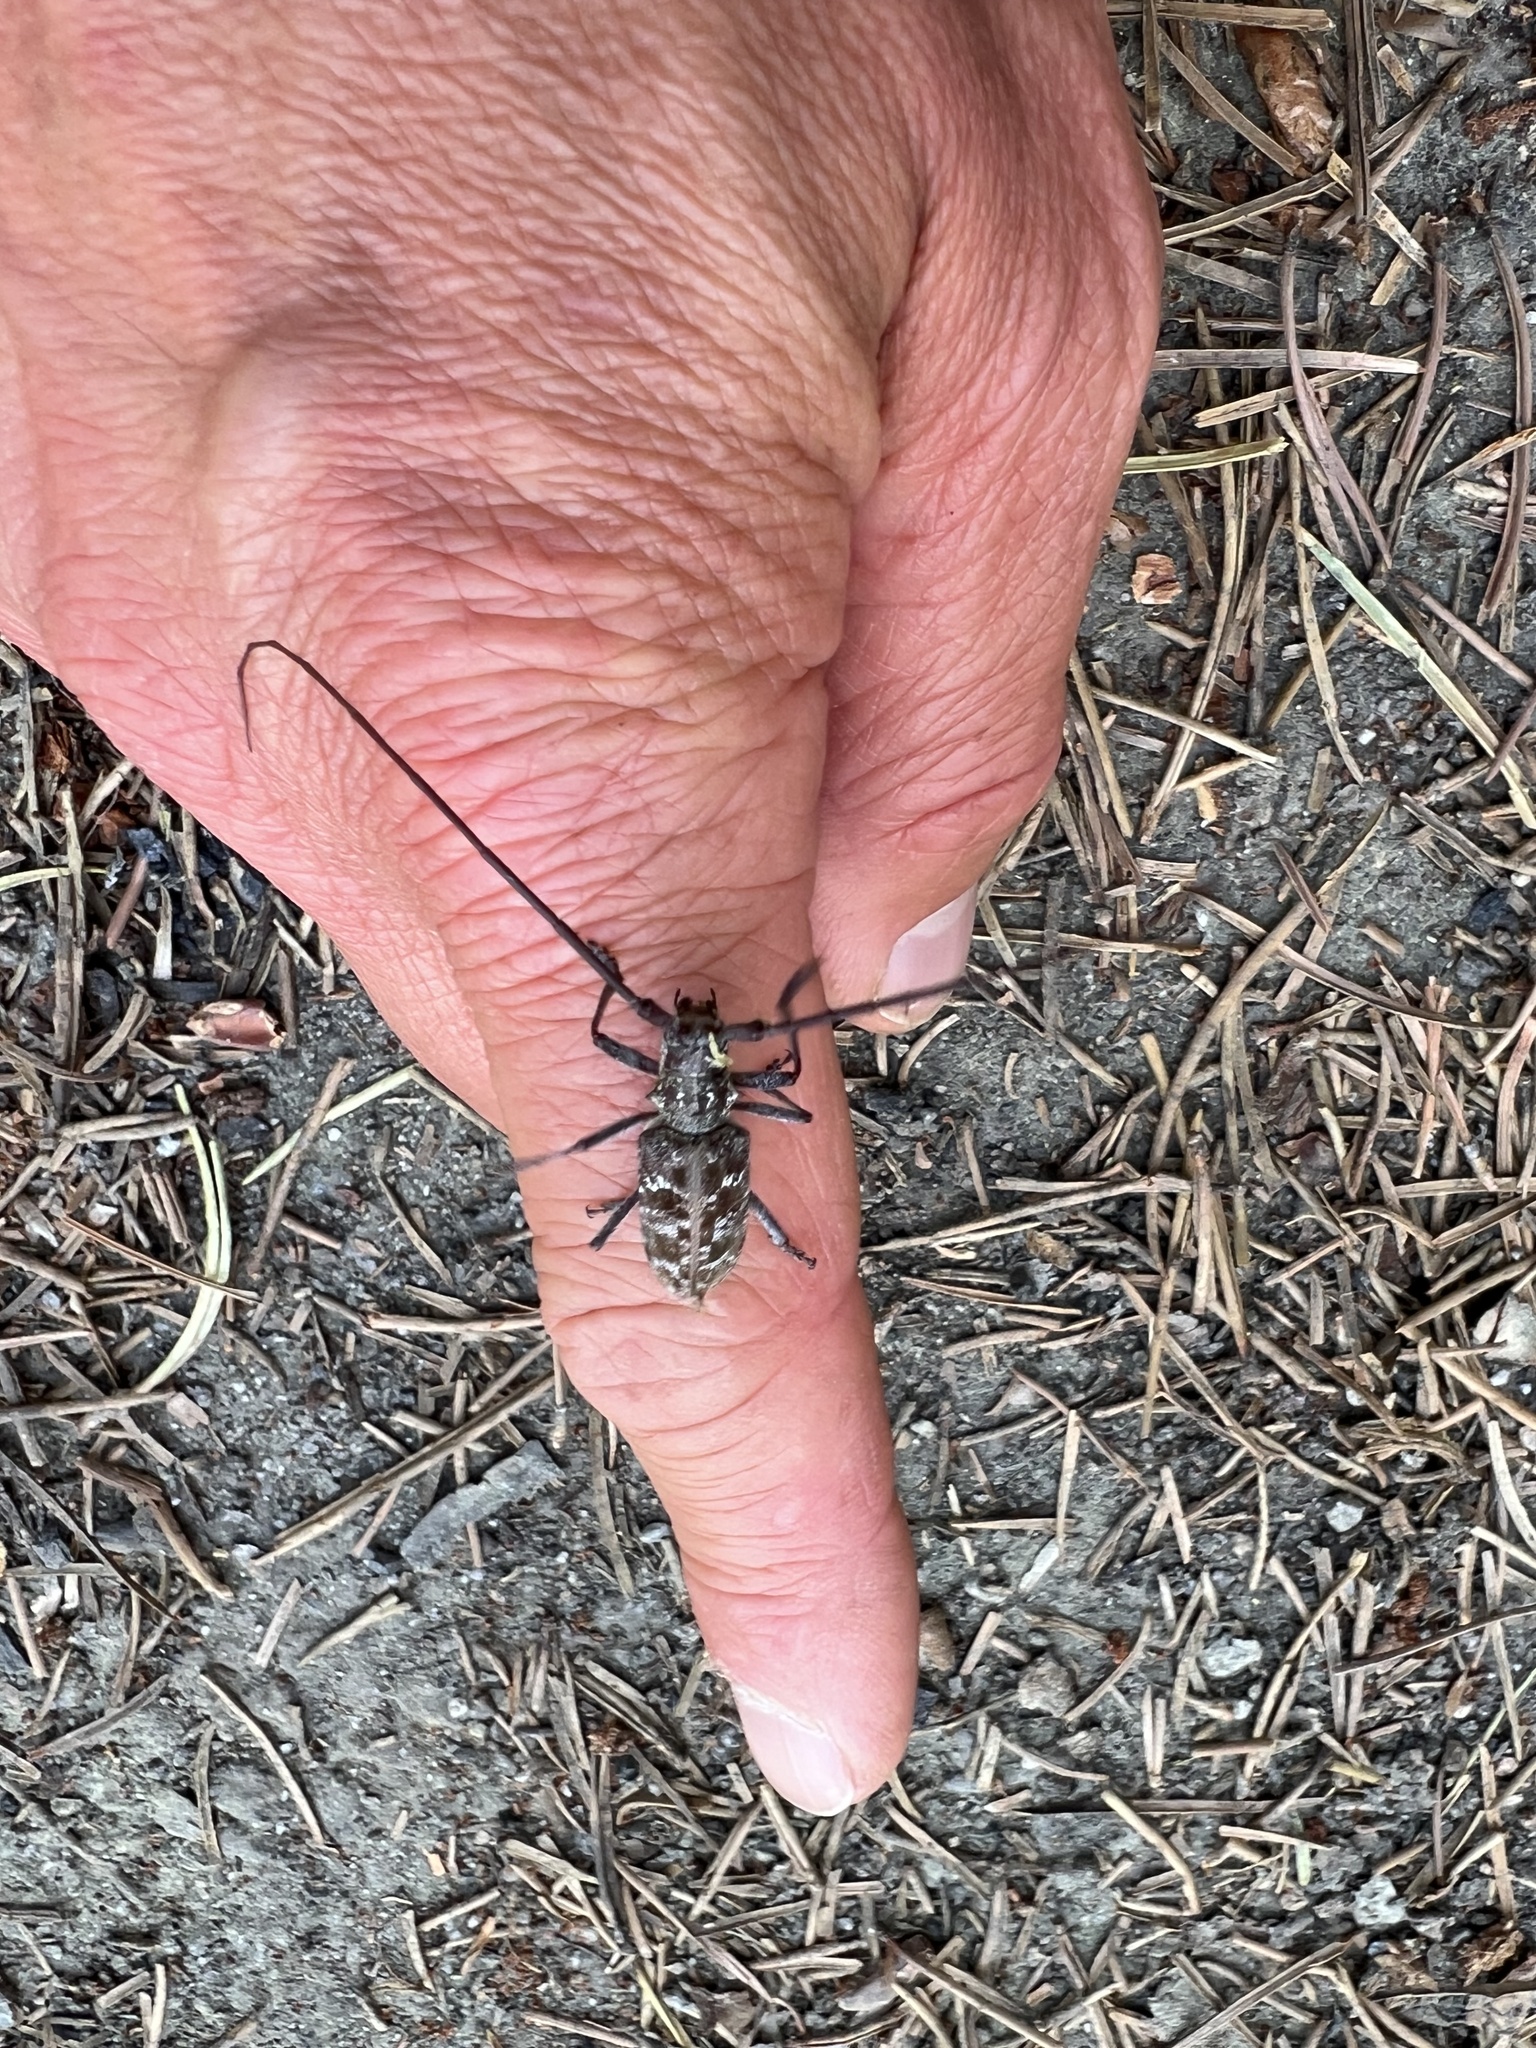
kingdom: Animalia
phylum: Arthropoda
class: Insecta
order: Coleoptera
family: Cerambycidae
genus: Monochamus
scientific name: Monochamus obtusus
